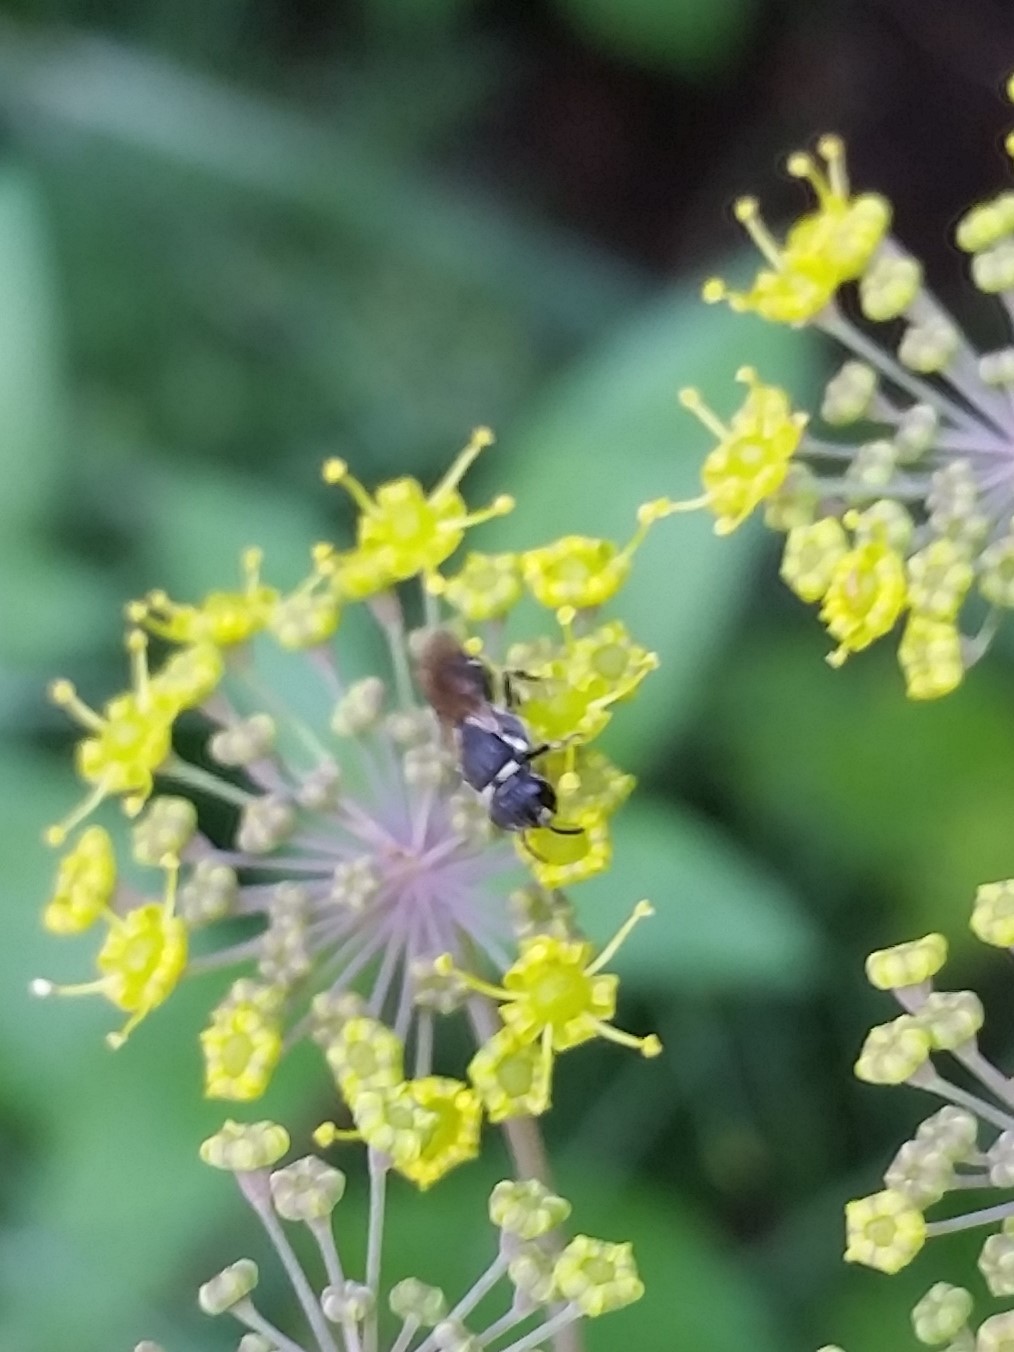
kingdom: Animalia
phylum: Arthropoda
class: Insecta
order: Hymenoptera
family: Colletidae
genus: Hylaeus
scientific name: Hylaeus
